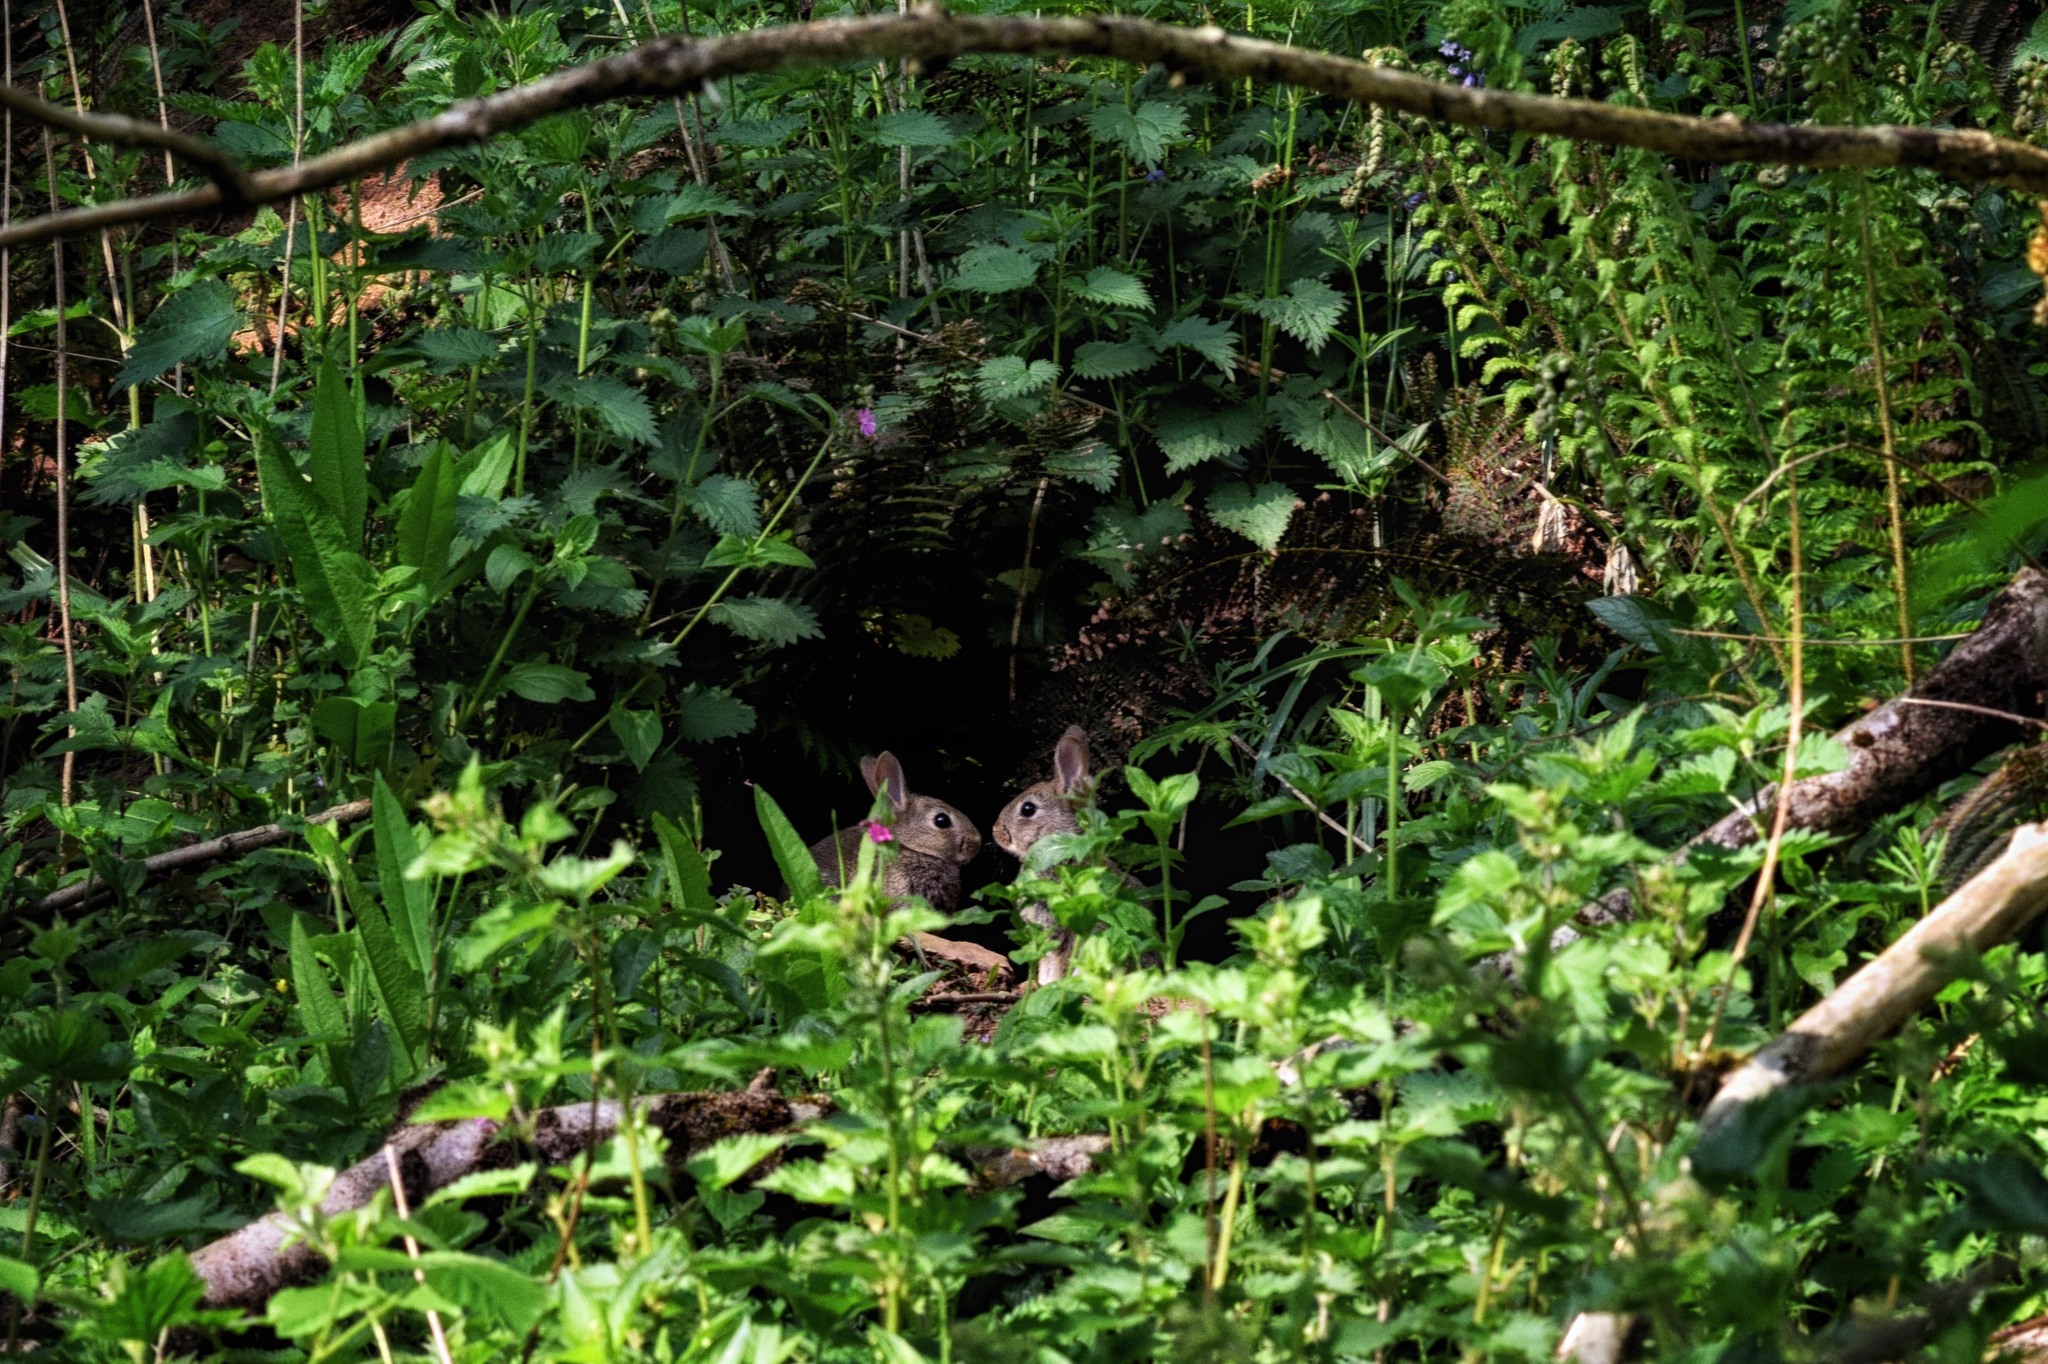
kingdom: Animalia
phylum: Chordata
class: Mammalia
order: Lagomorpha
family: Leporidae
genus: Oryctolagus
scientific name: Oryctolagus cuniculus
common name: European rabbit
